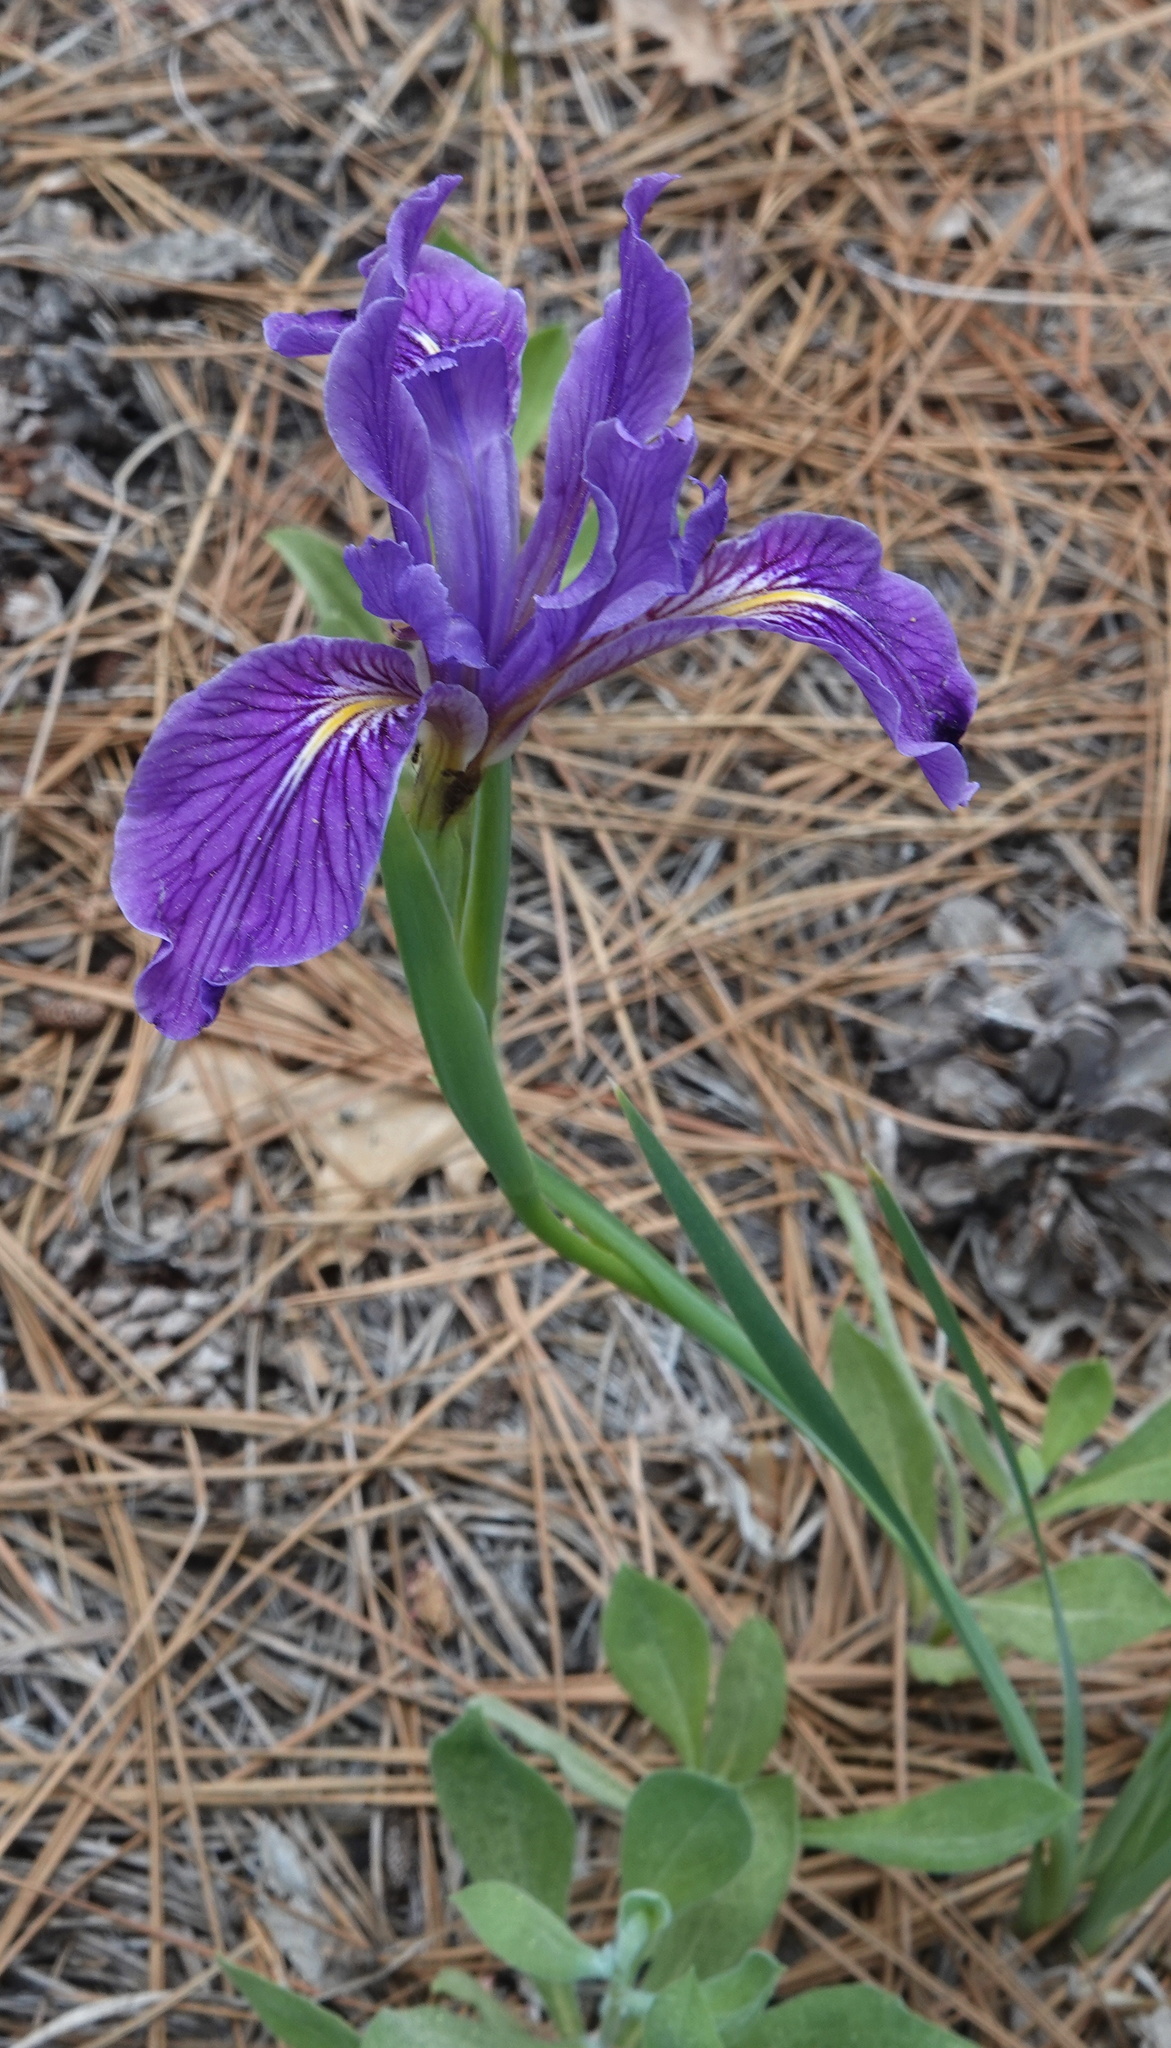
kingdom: Plantae
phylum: Tracheophyta
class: Liliopsida
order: Asparagales
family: Iridaceae
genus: Iris
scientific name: Iris hartwegii
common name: Sierra iris
